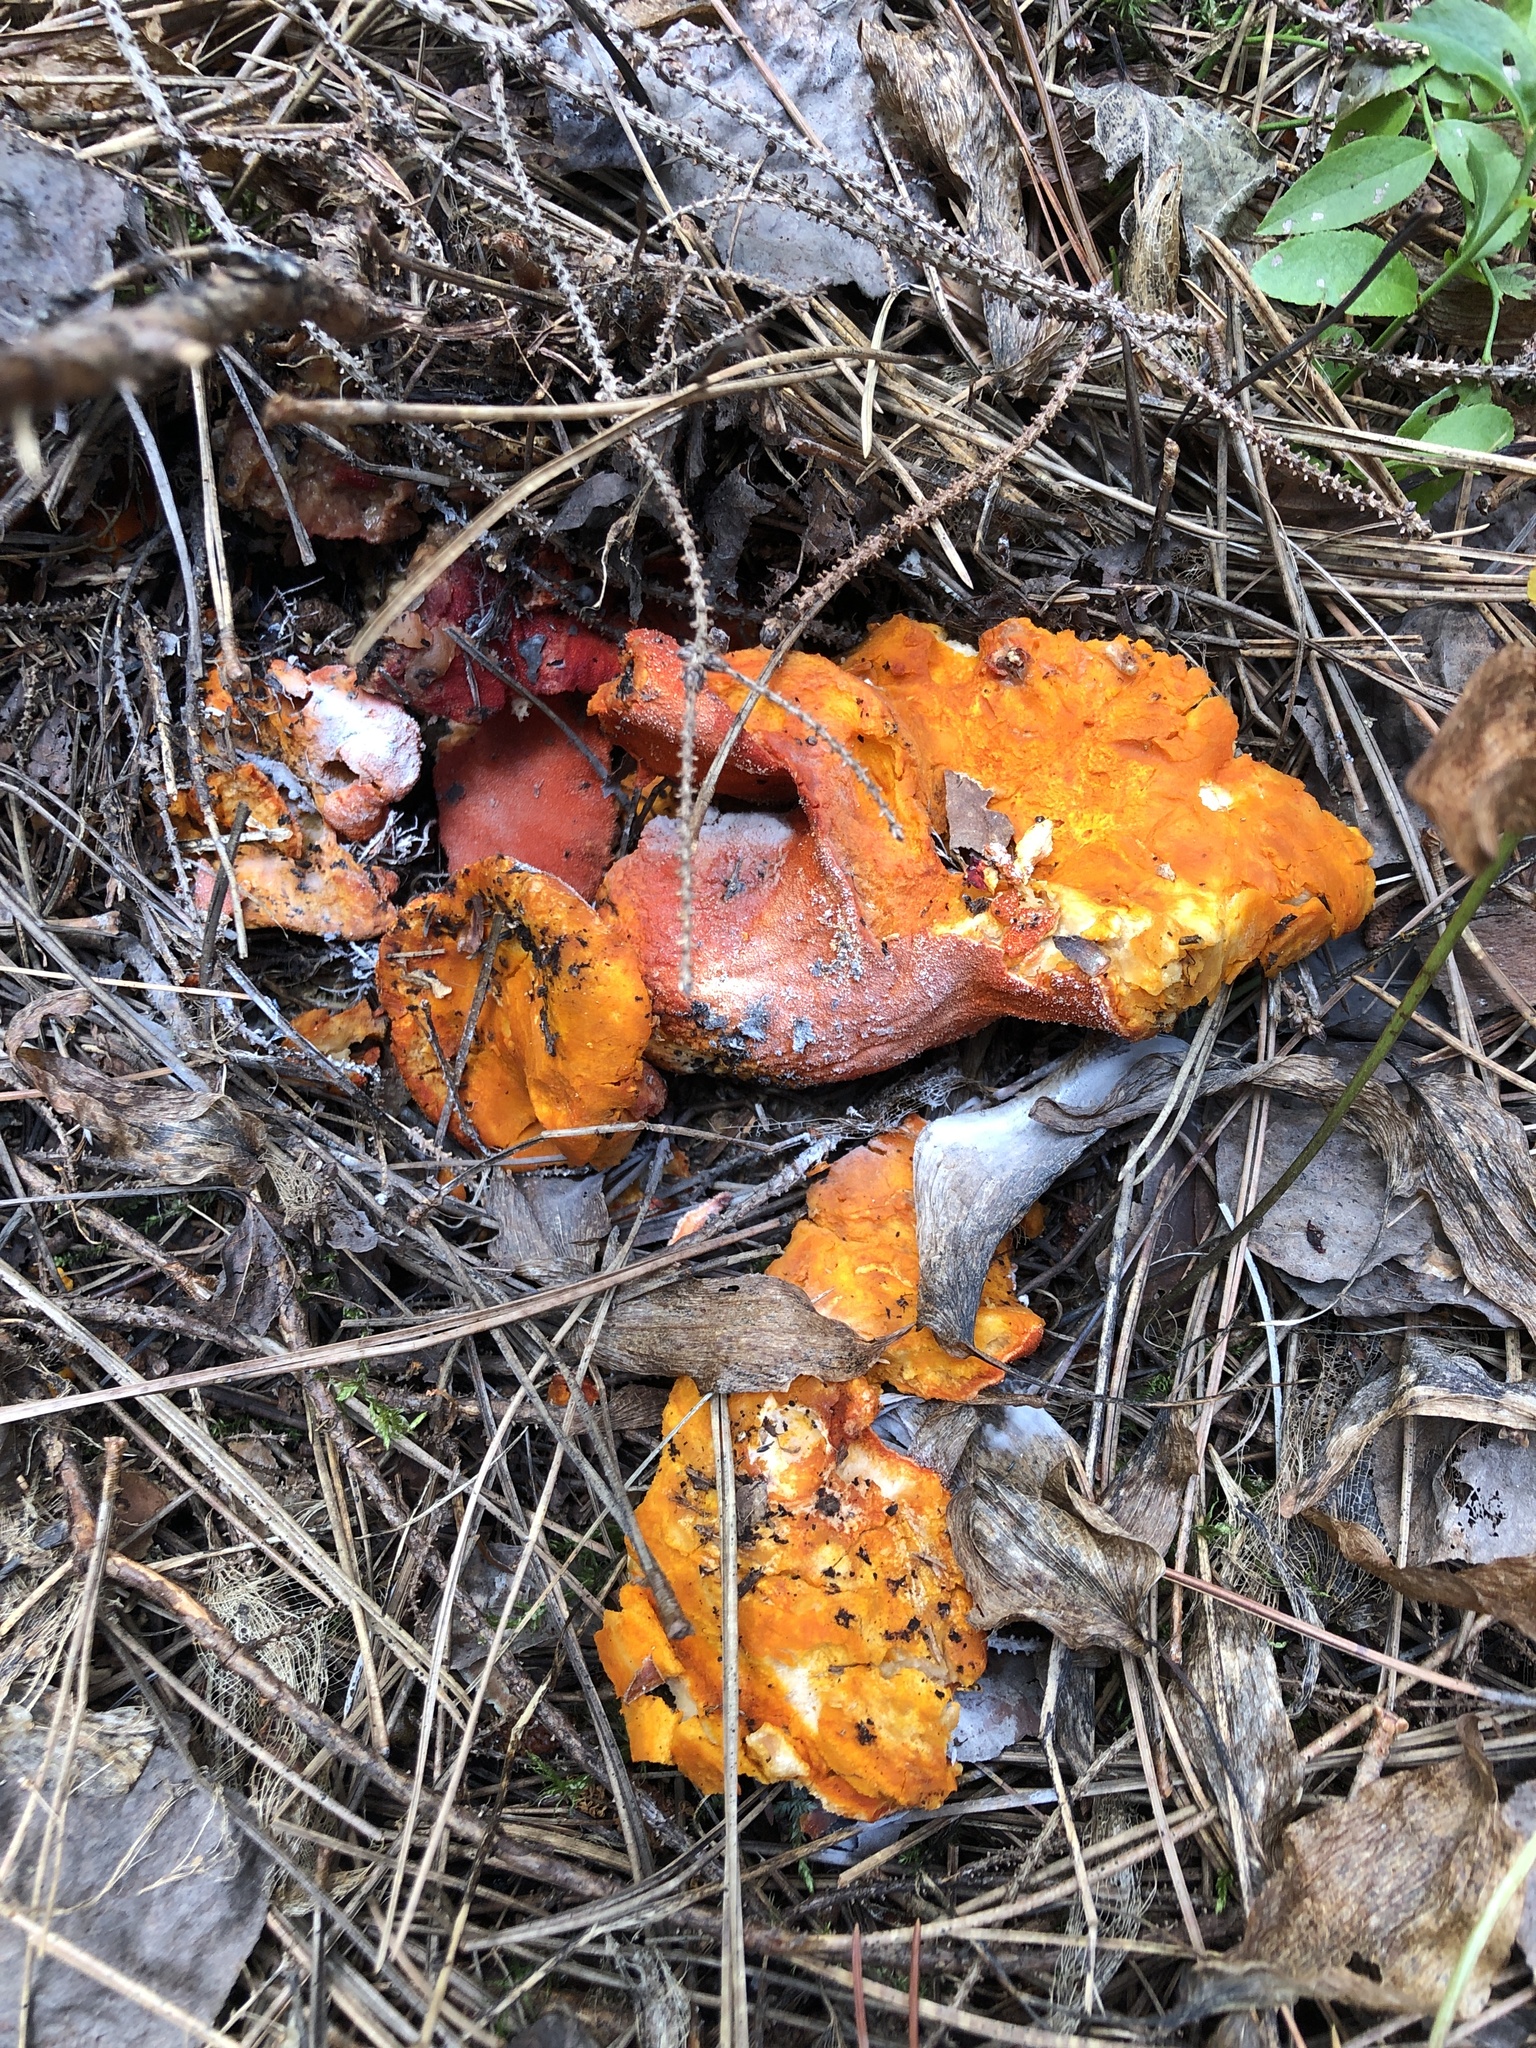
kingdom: Fungi
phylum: Ascomycota
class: Sordariomycetes
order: Hypocreales
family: Hypocreaceae
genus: Hypomyces
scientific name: Hypomyces lactifluorum
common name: Lobster mushroom
